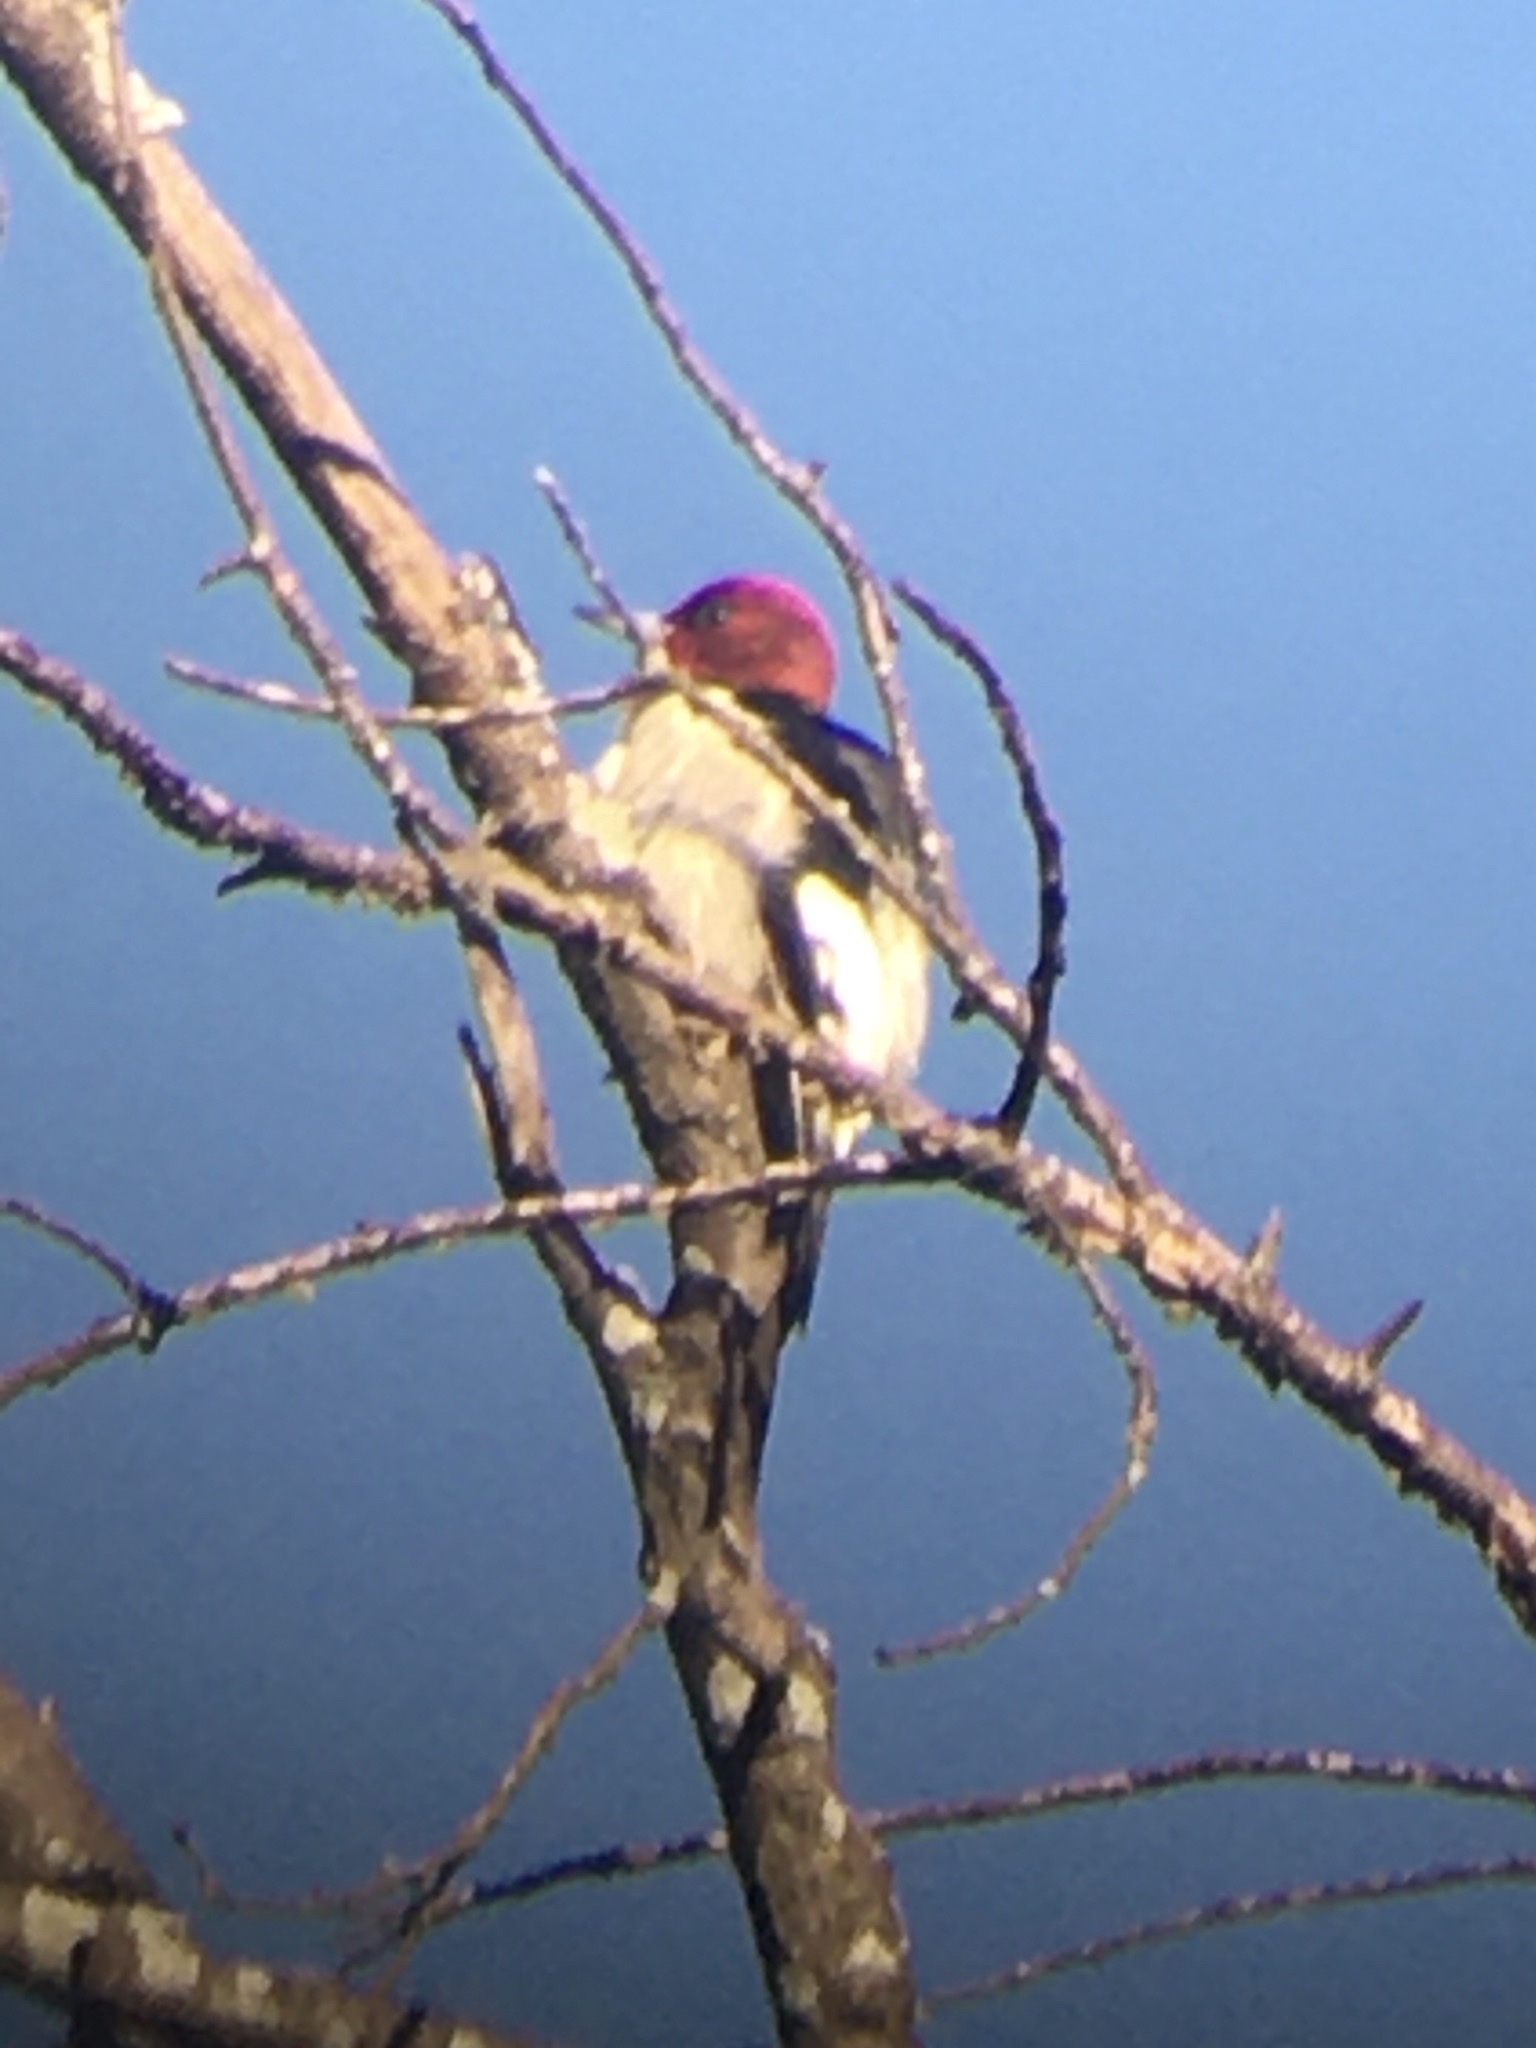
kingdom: Animalia
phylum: Chordata
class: Aves
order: Piciformes
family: Picidae
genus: Melanerpes
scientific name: Melanerpes erythrocephalus
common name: Red-headed woodpecker
